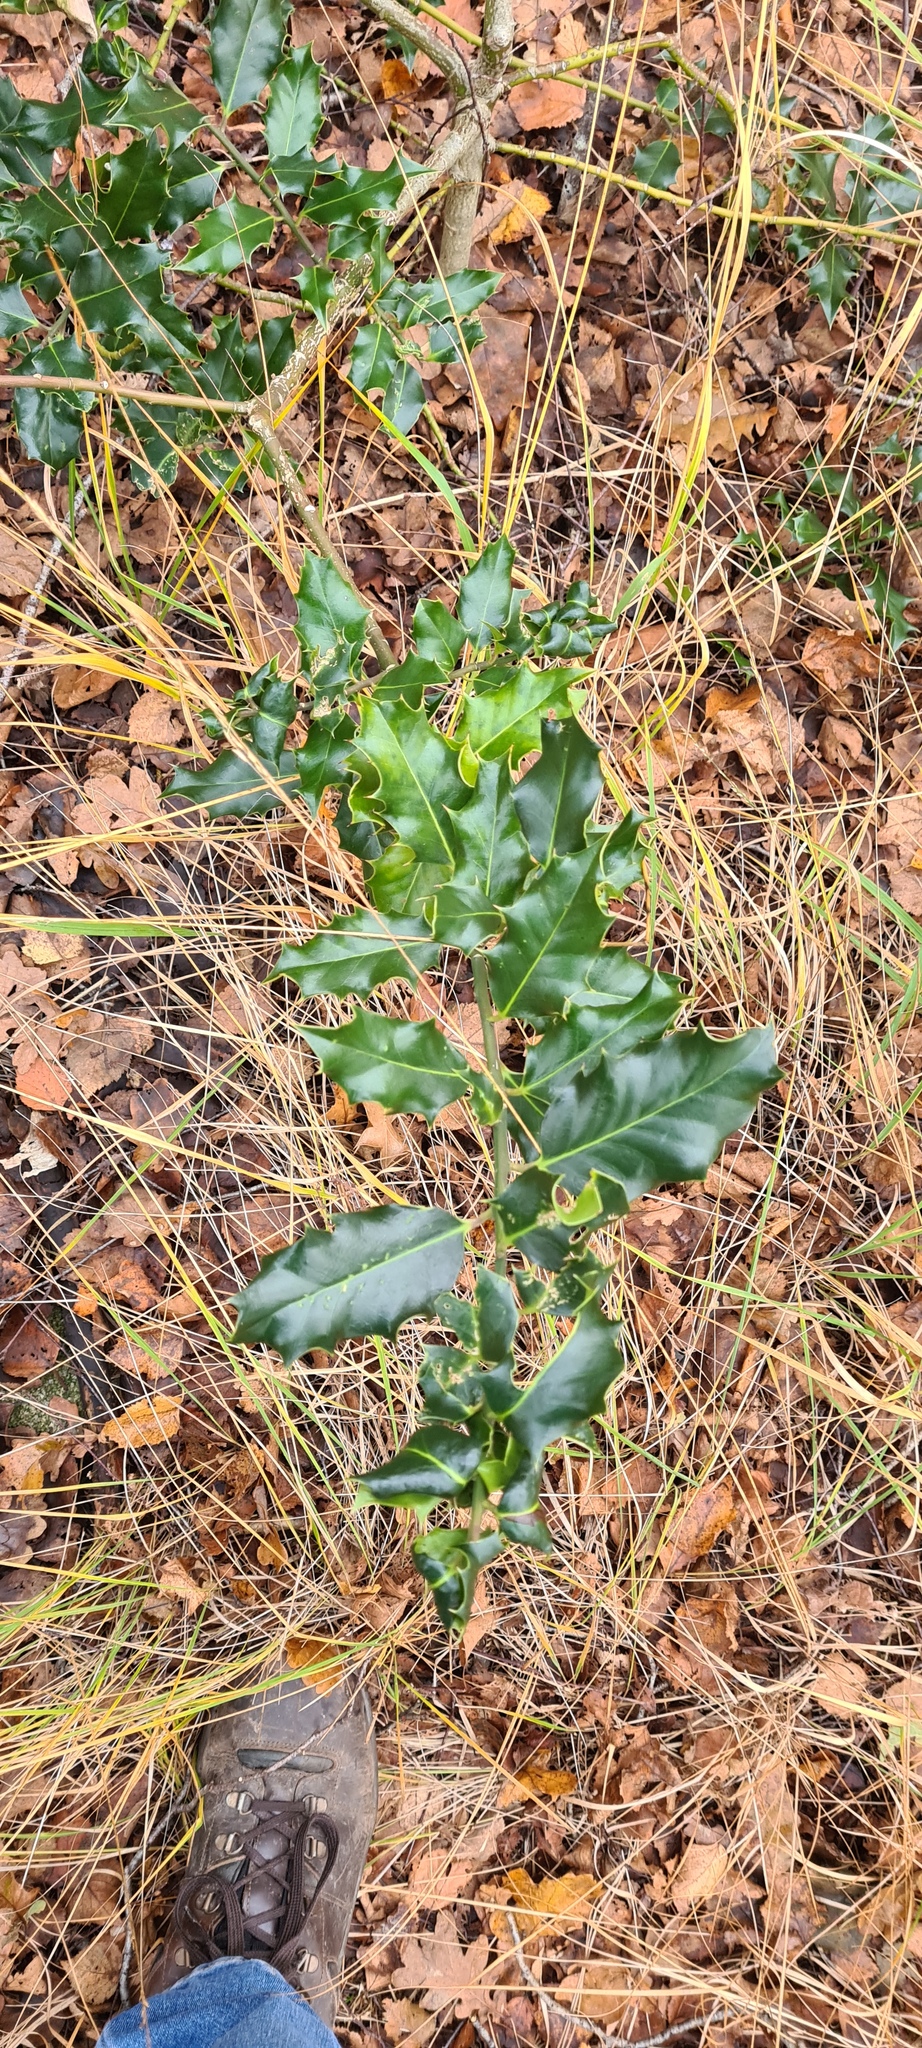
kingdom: Plantae
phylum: Tracheophyta
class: Magnoliopsida
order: Aquifoliales
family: Aquifoliaceae
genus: Ilex
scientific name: Ilex aquifolium
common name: English holly
